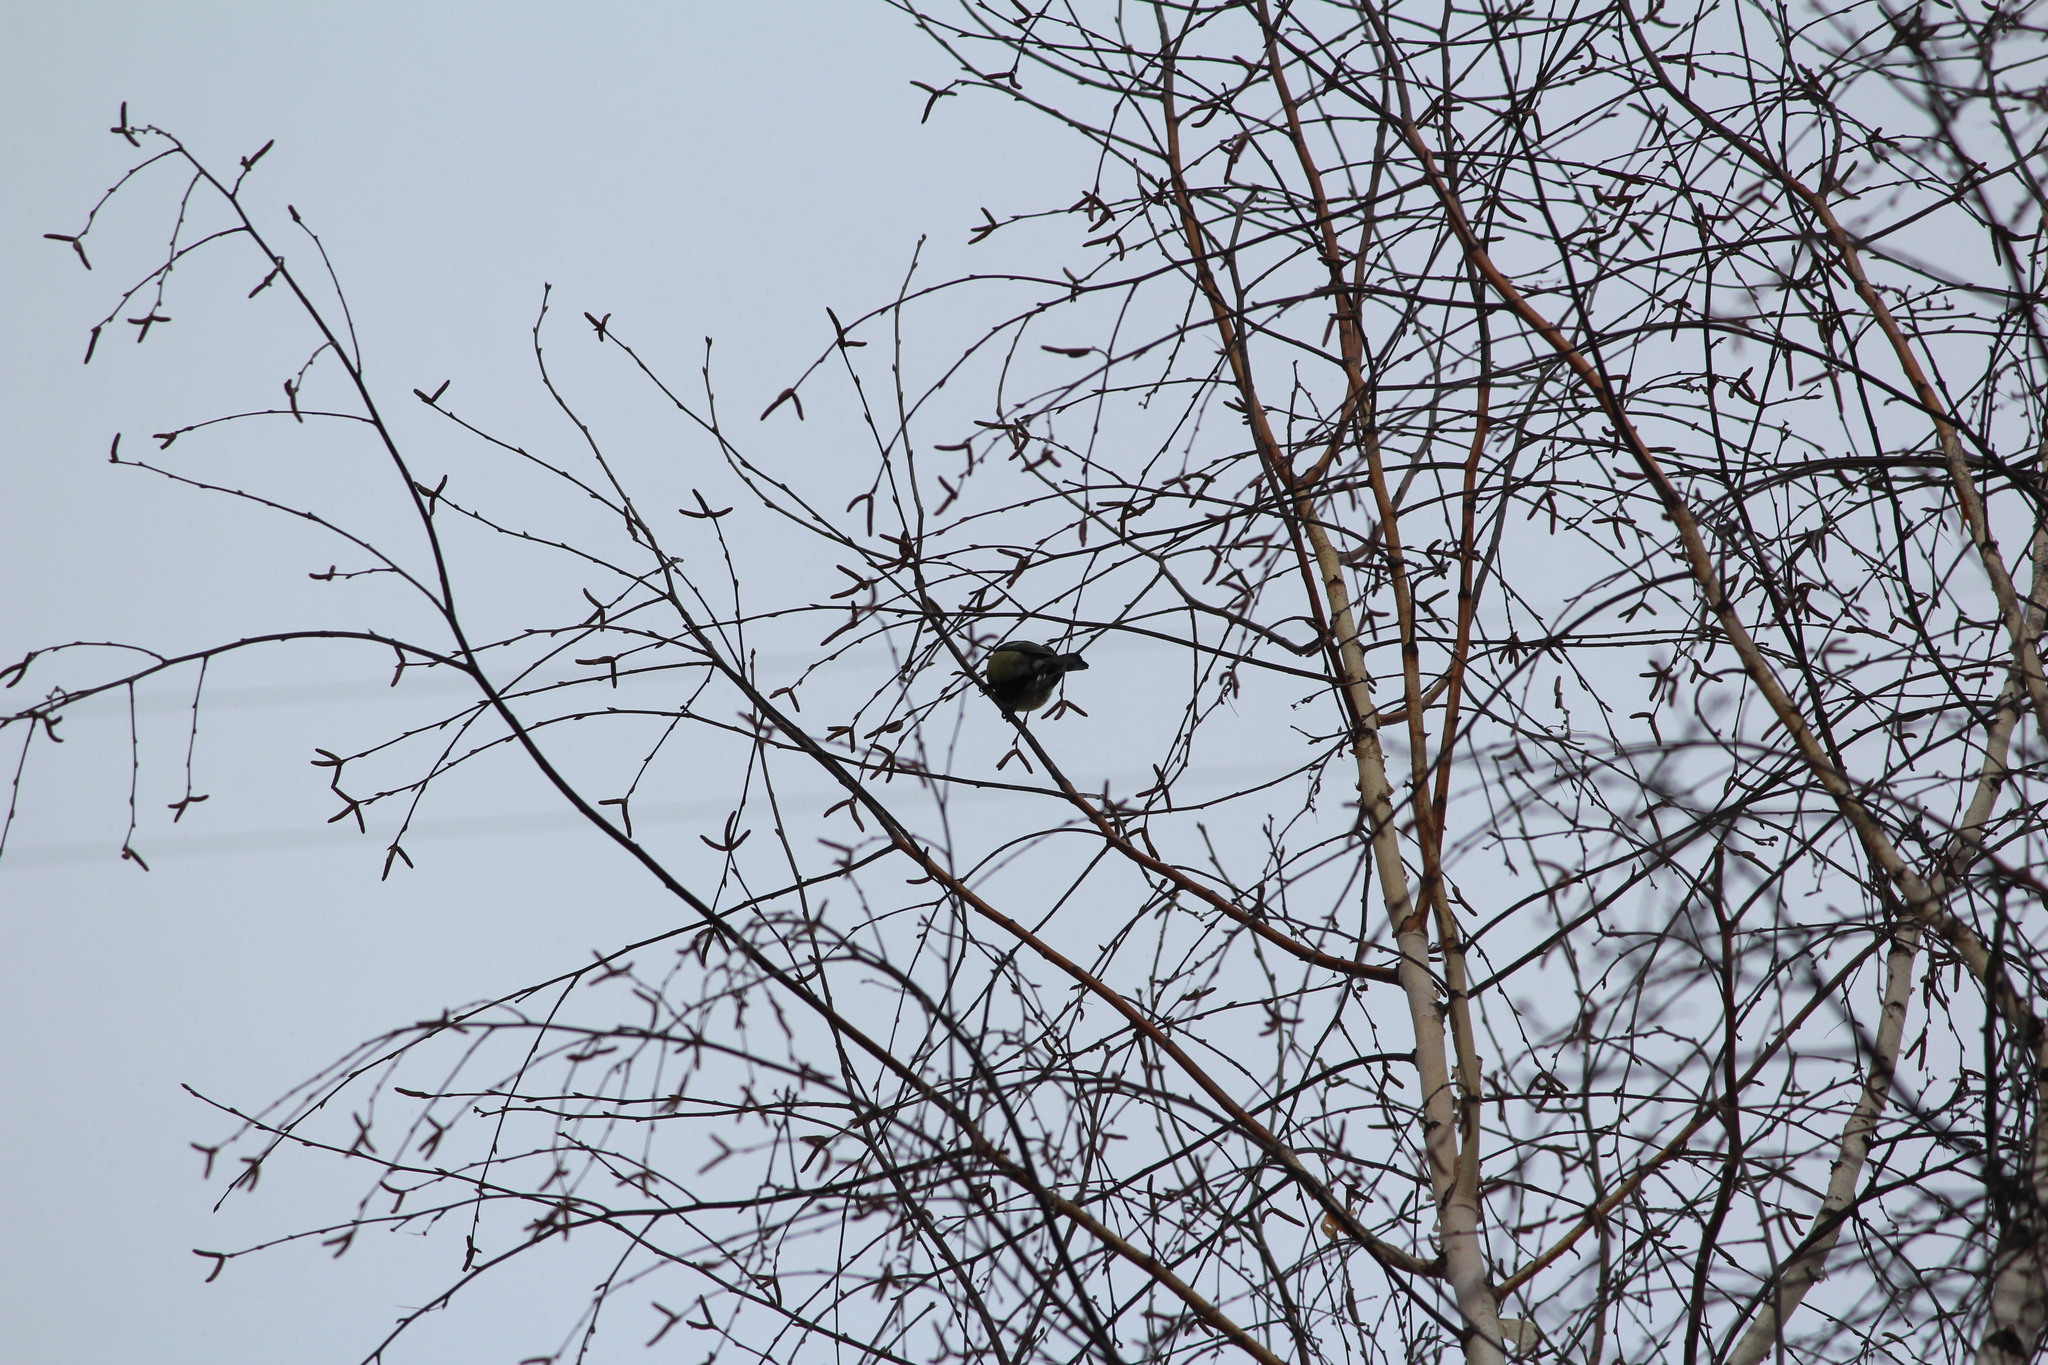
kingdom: Animalia
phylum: Chordata
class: Aves
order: Passeriformes
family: Paridae
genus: Parus
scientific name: Parus major
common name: Great tit
